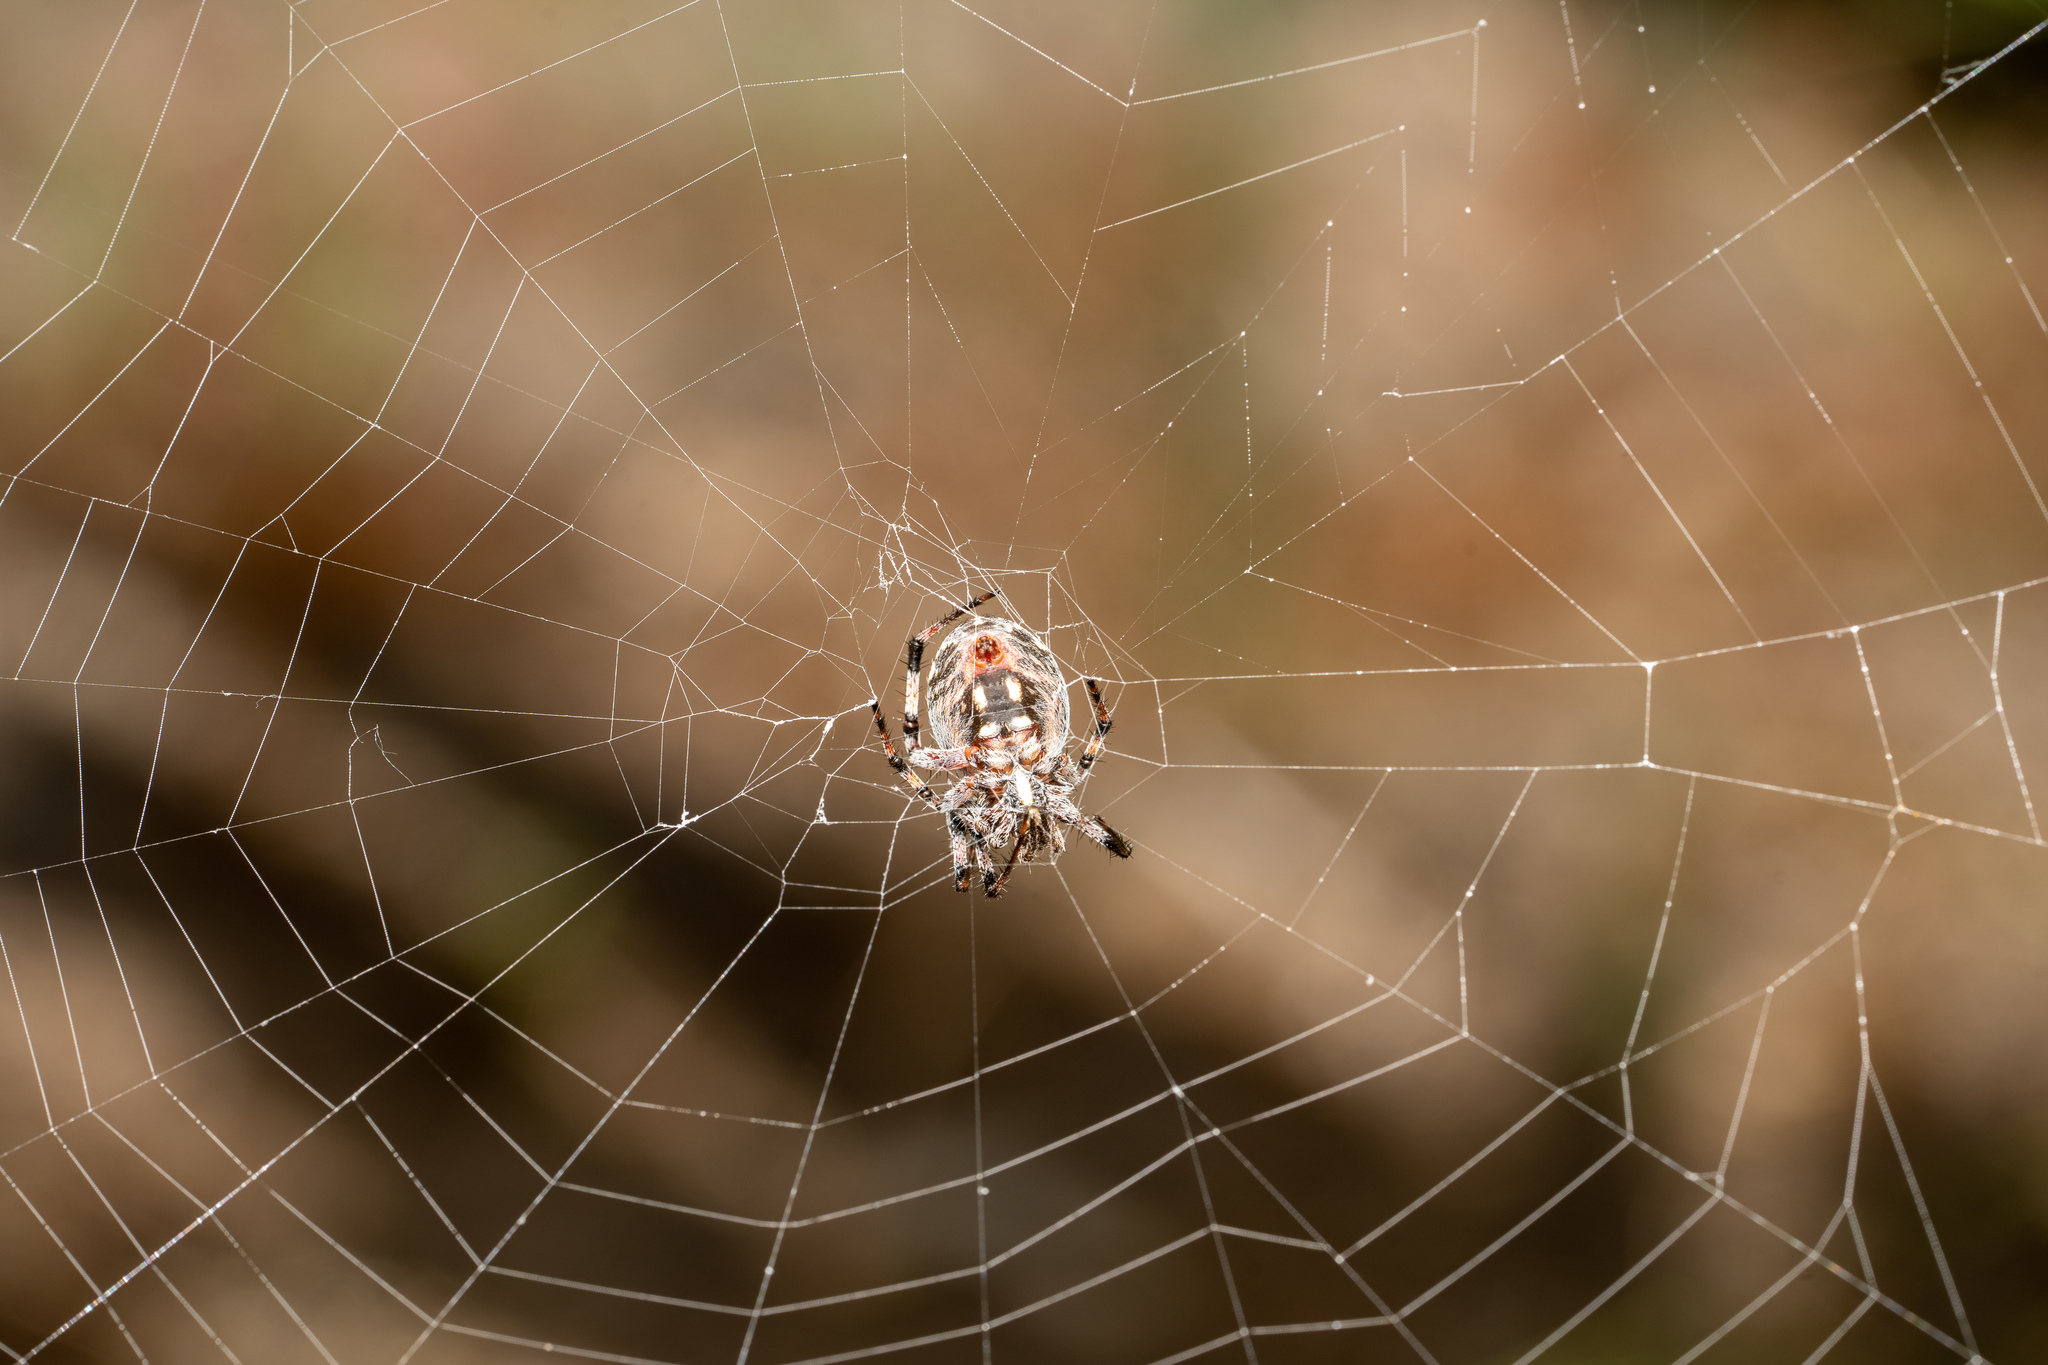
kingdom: Animalia
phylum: Arthropoda
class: Arachnida
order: Araneae
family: Araneidae
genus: Neoscona
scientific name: Neoscona oaxacensis
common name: Orb weavers
